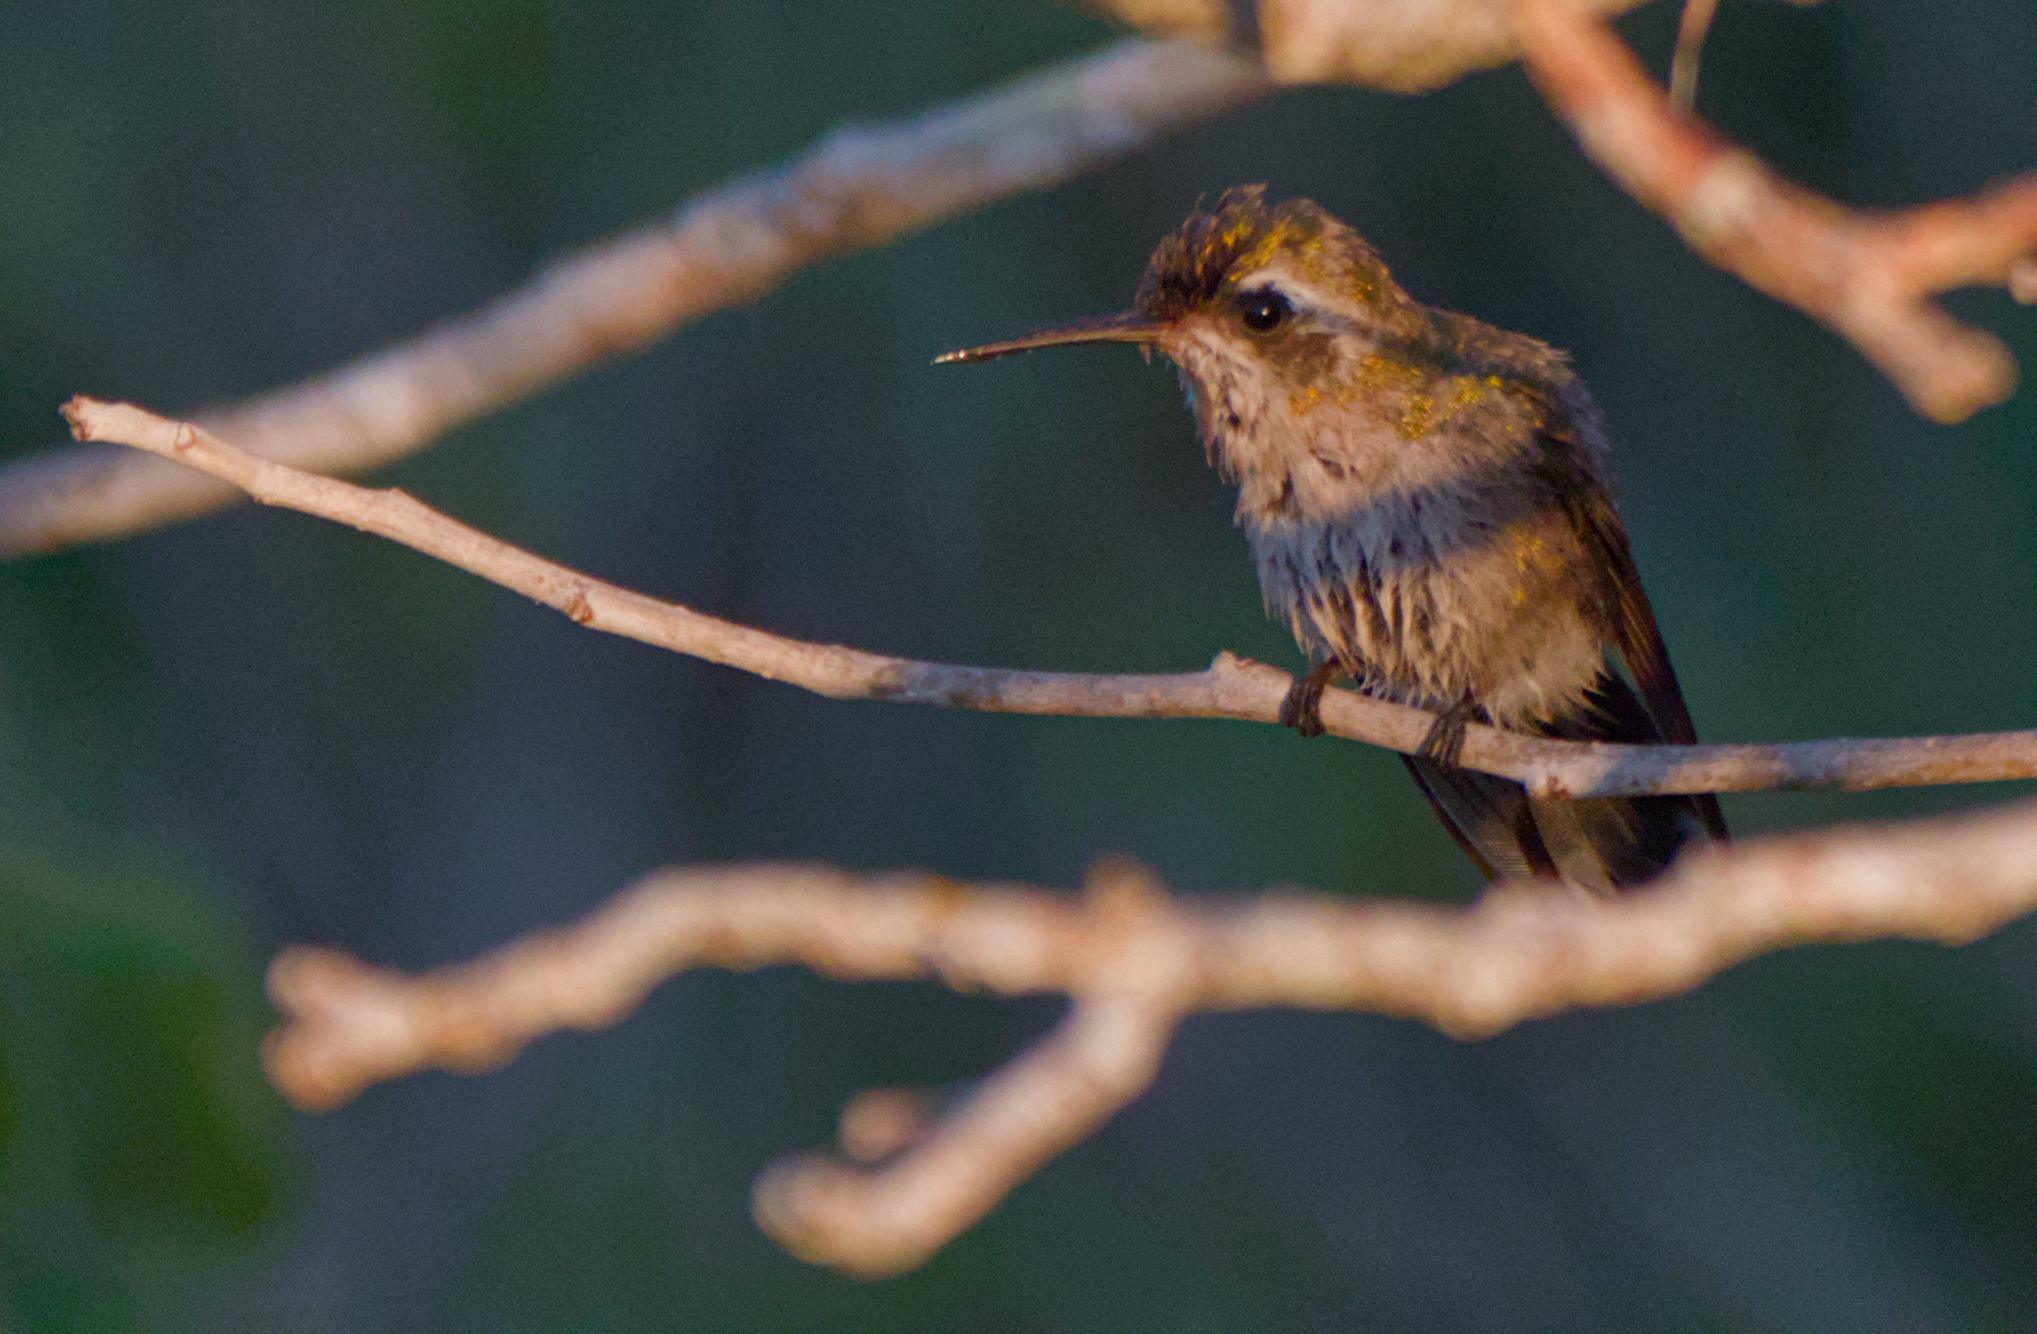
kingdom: Animalia
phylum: Chordata
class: Aves
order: Apodiformes
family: Trochilidae
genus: Cynanthus
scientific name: Cynanthus canivetii
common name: Canivet's emerald
